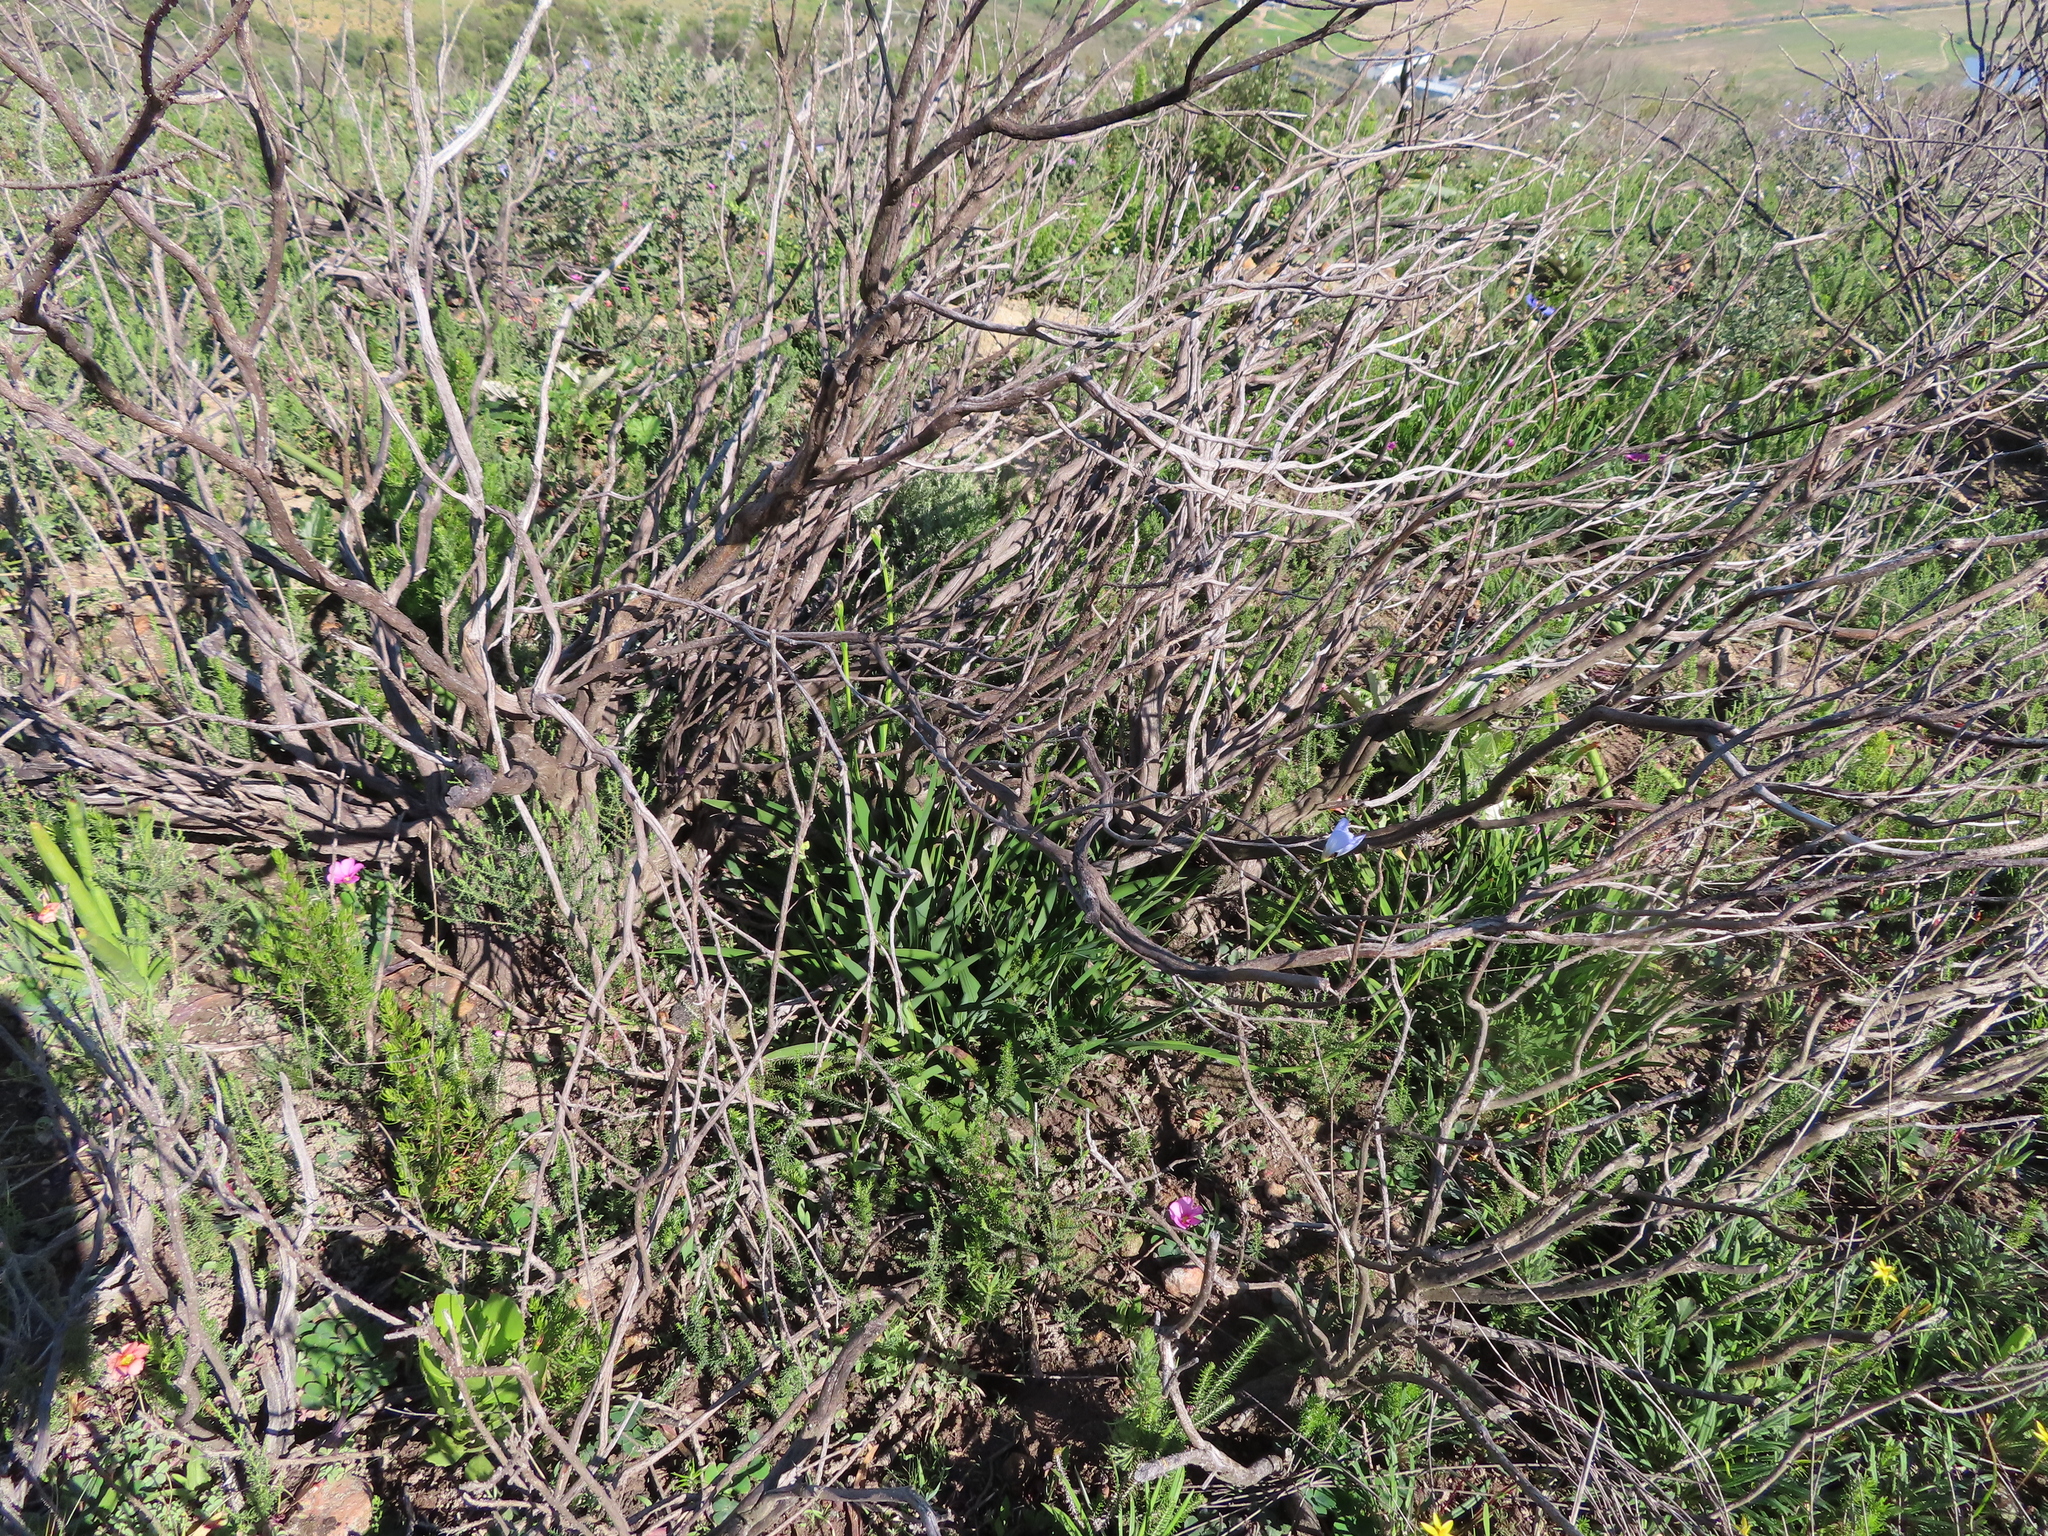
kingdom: Plantae
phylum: Tracheophyta
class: Liliopsida
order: Asparagales
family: Iridaceae
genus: Aristea
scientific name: Aristea lugens
